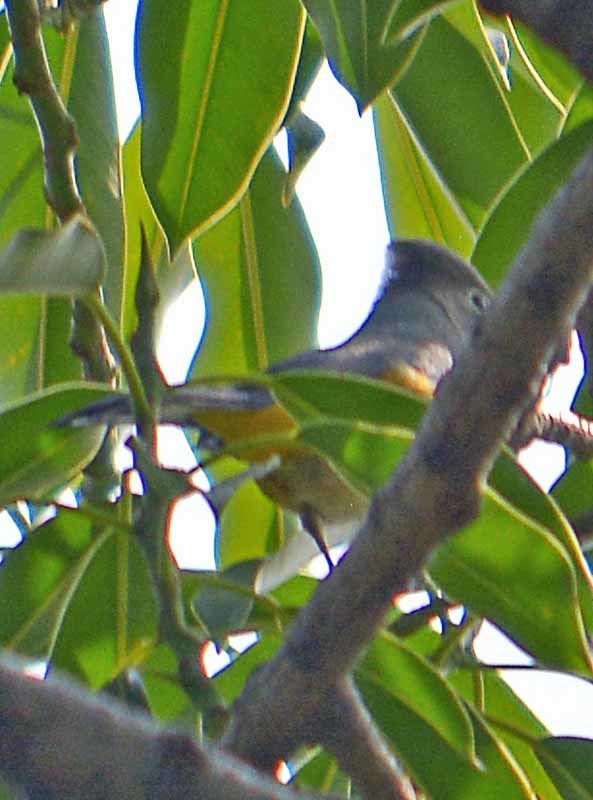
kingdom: Animalia
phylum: Chordata
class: Aves
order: Passeriformes
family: Ptilogonatidae
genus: Ptilogonys
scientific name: Ptilogonys cinereus
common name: Gray silky-flycatcher
